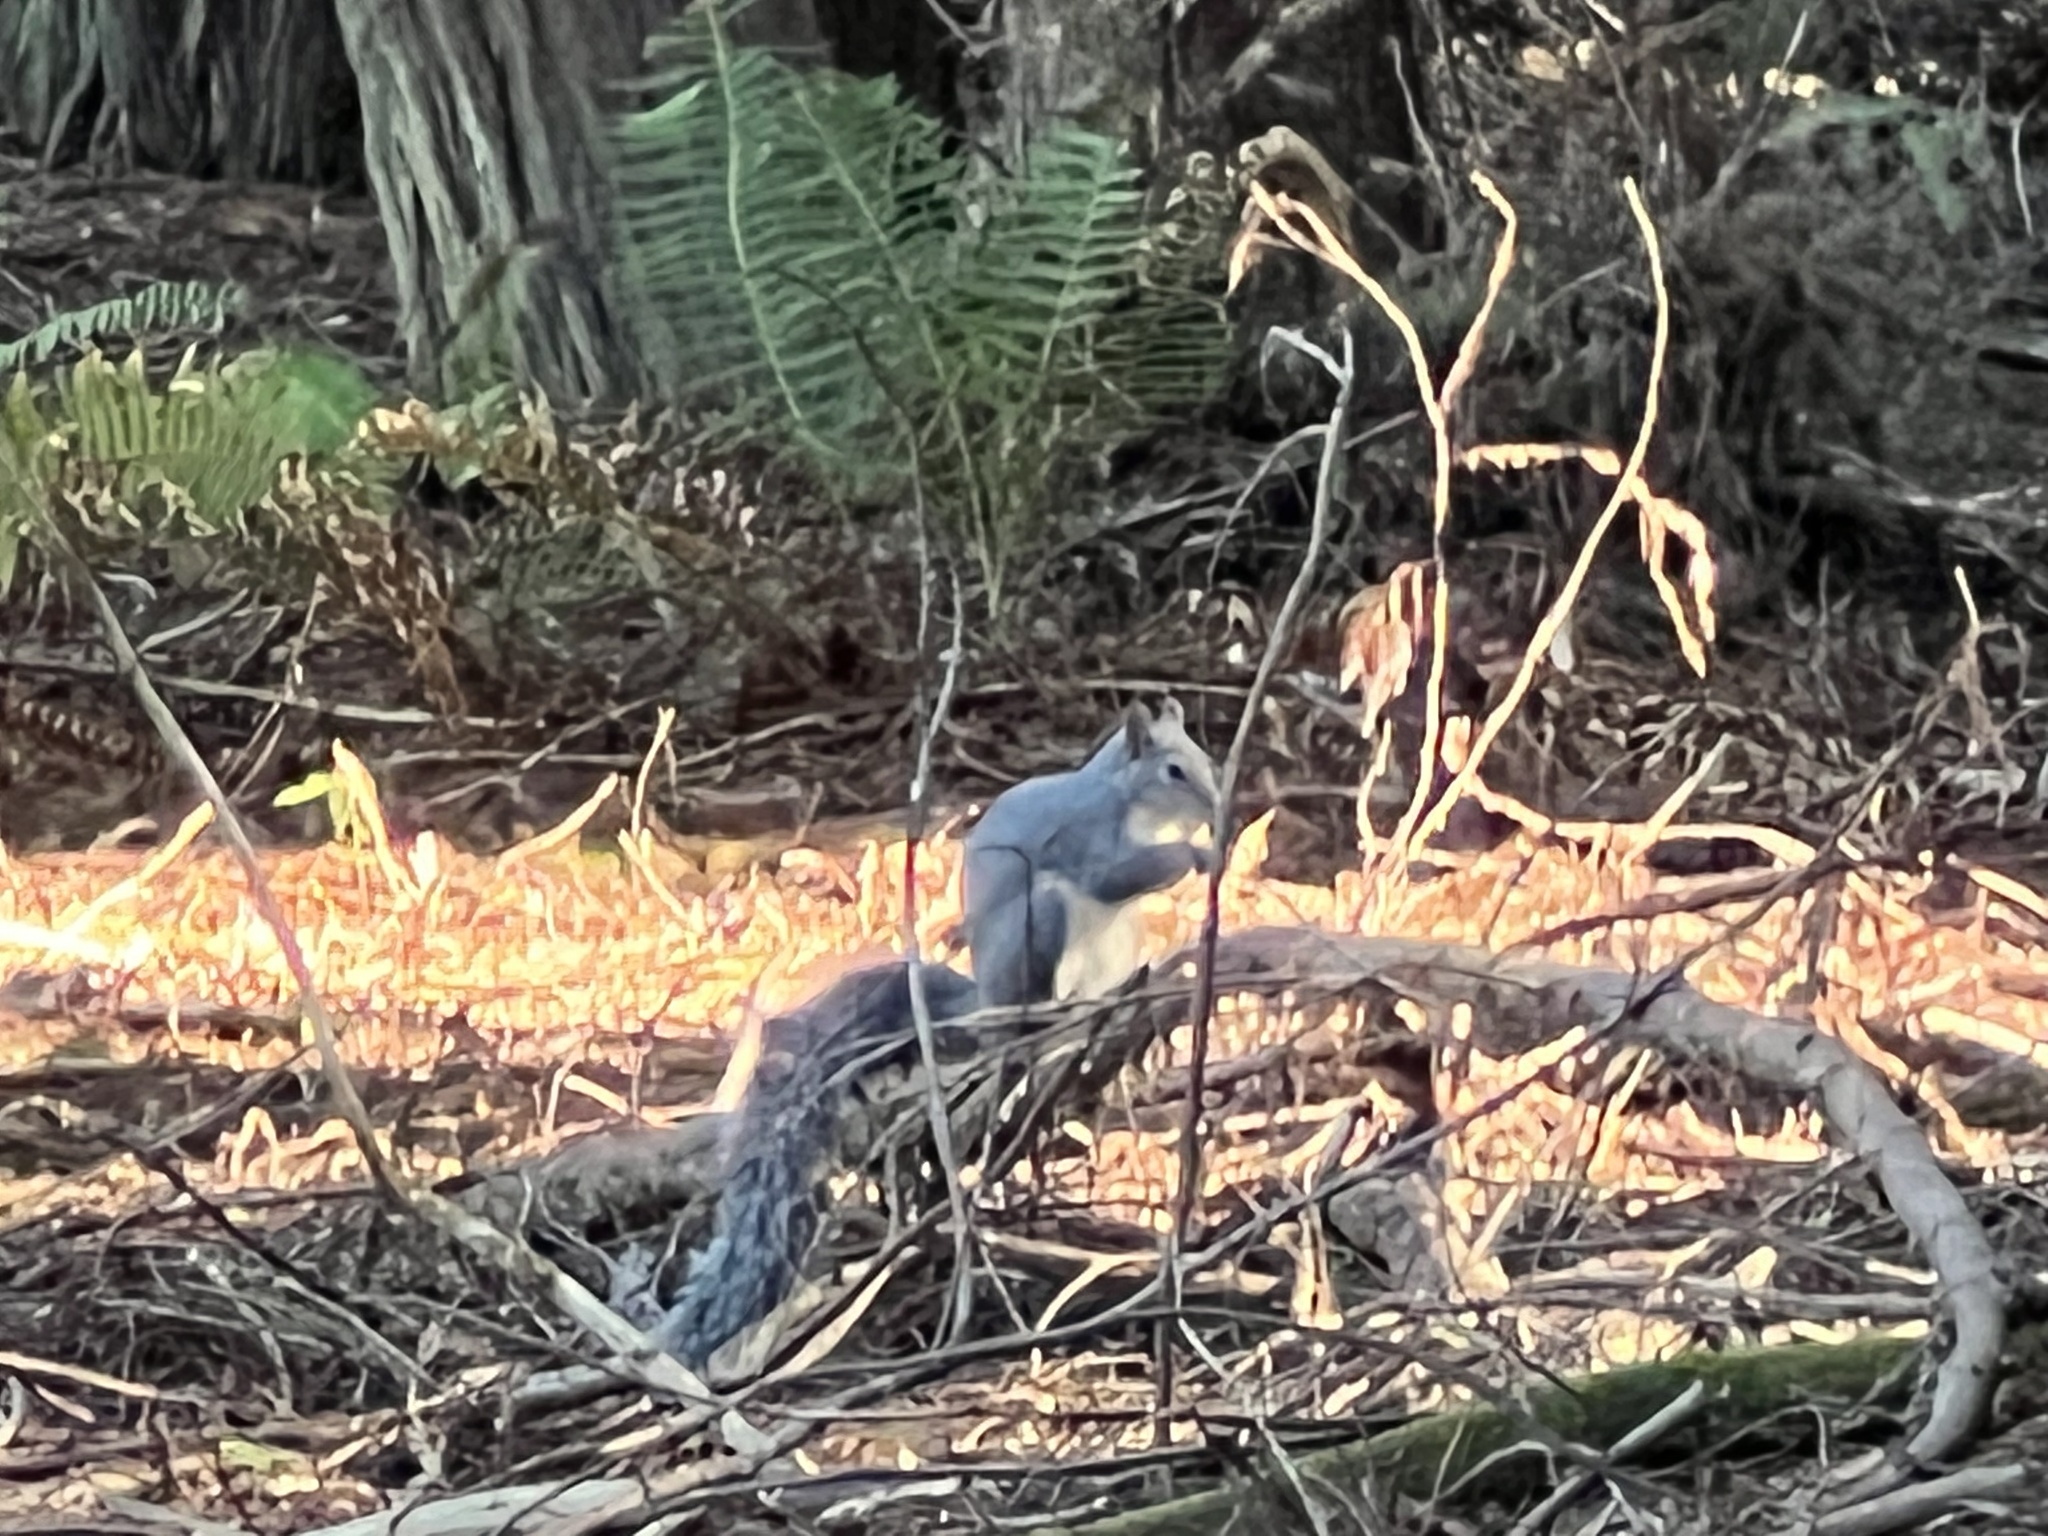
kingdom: Animalia
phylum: Chordata
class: Mammalia
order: Rodentia
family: Sciuridae
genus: Sciurus
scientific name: Sciurus griseus
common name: Western gray squirrel
